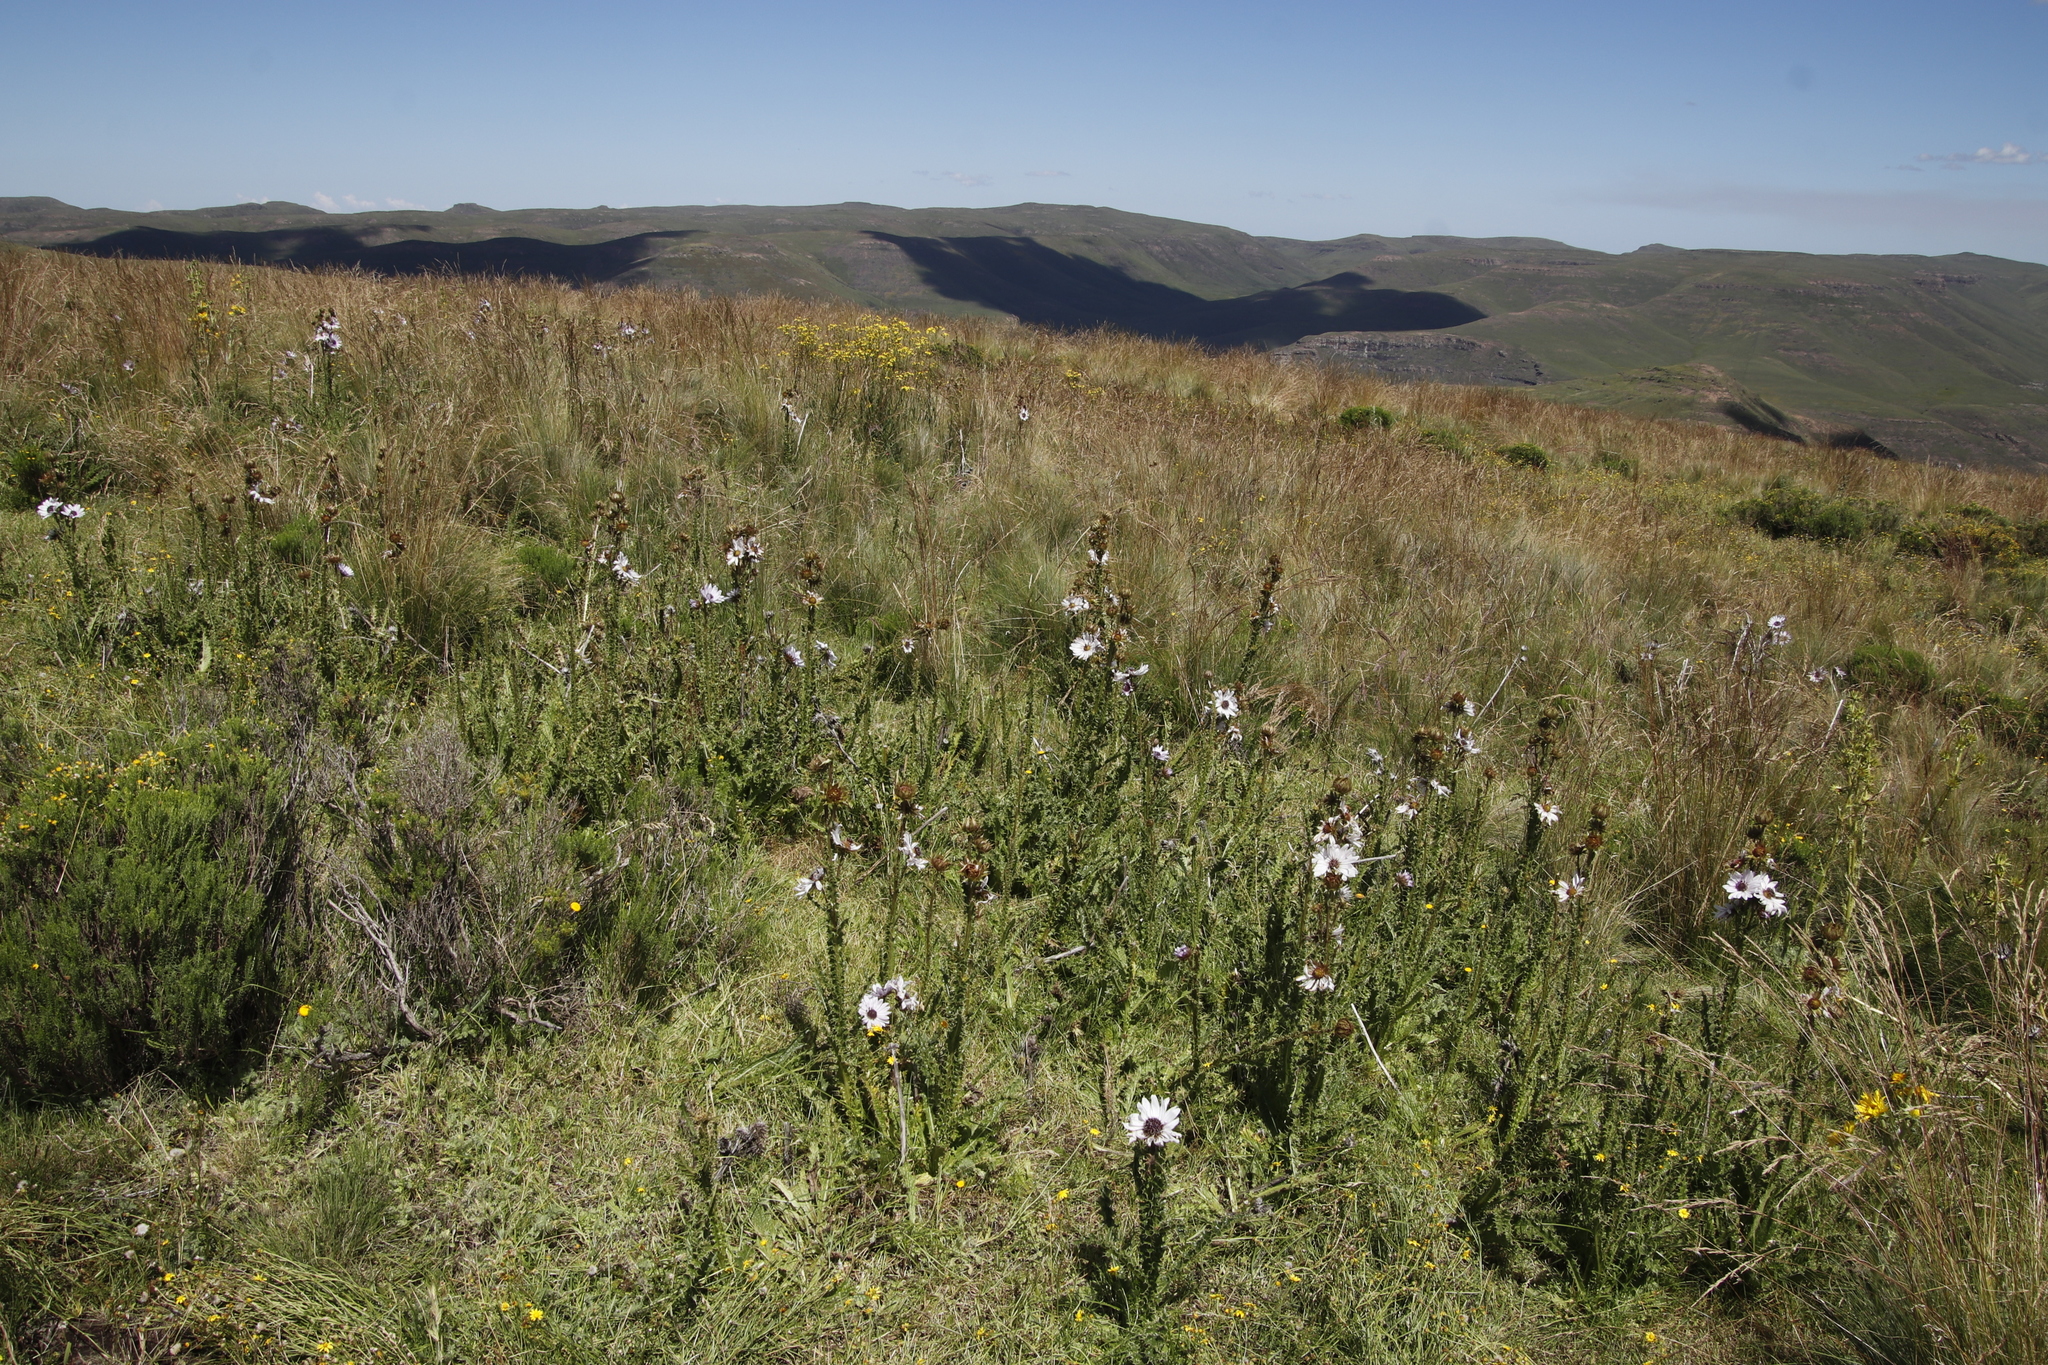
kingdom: Plantae
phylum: Tracheophyta
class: Magnoliopsida
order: Asterales
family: Asteraceae
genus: Berkheya
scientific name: Berkheya purpurea
